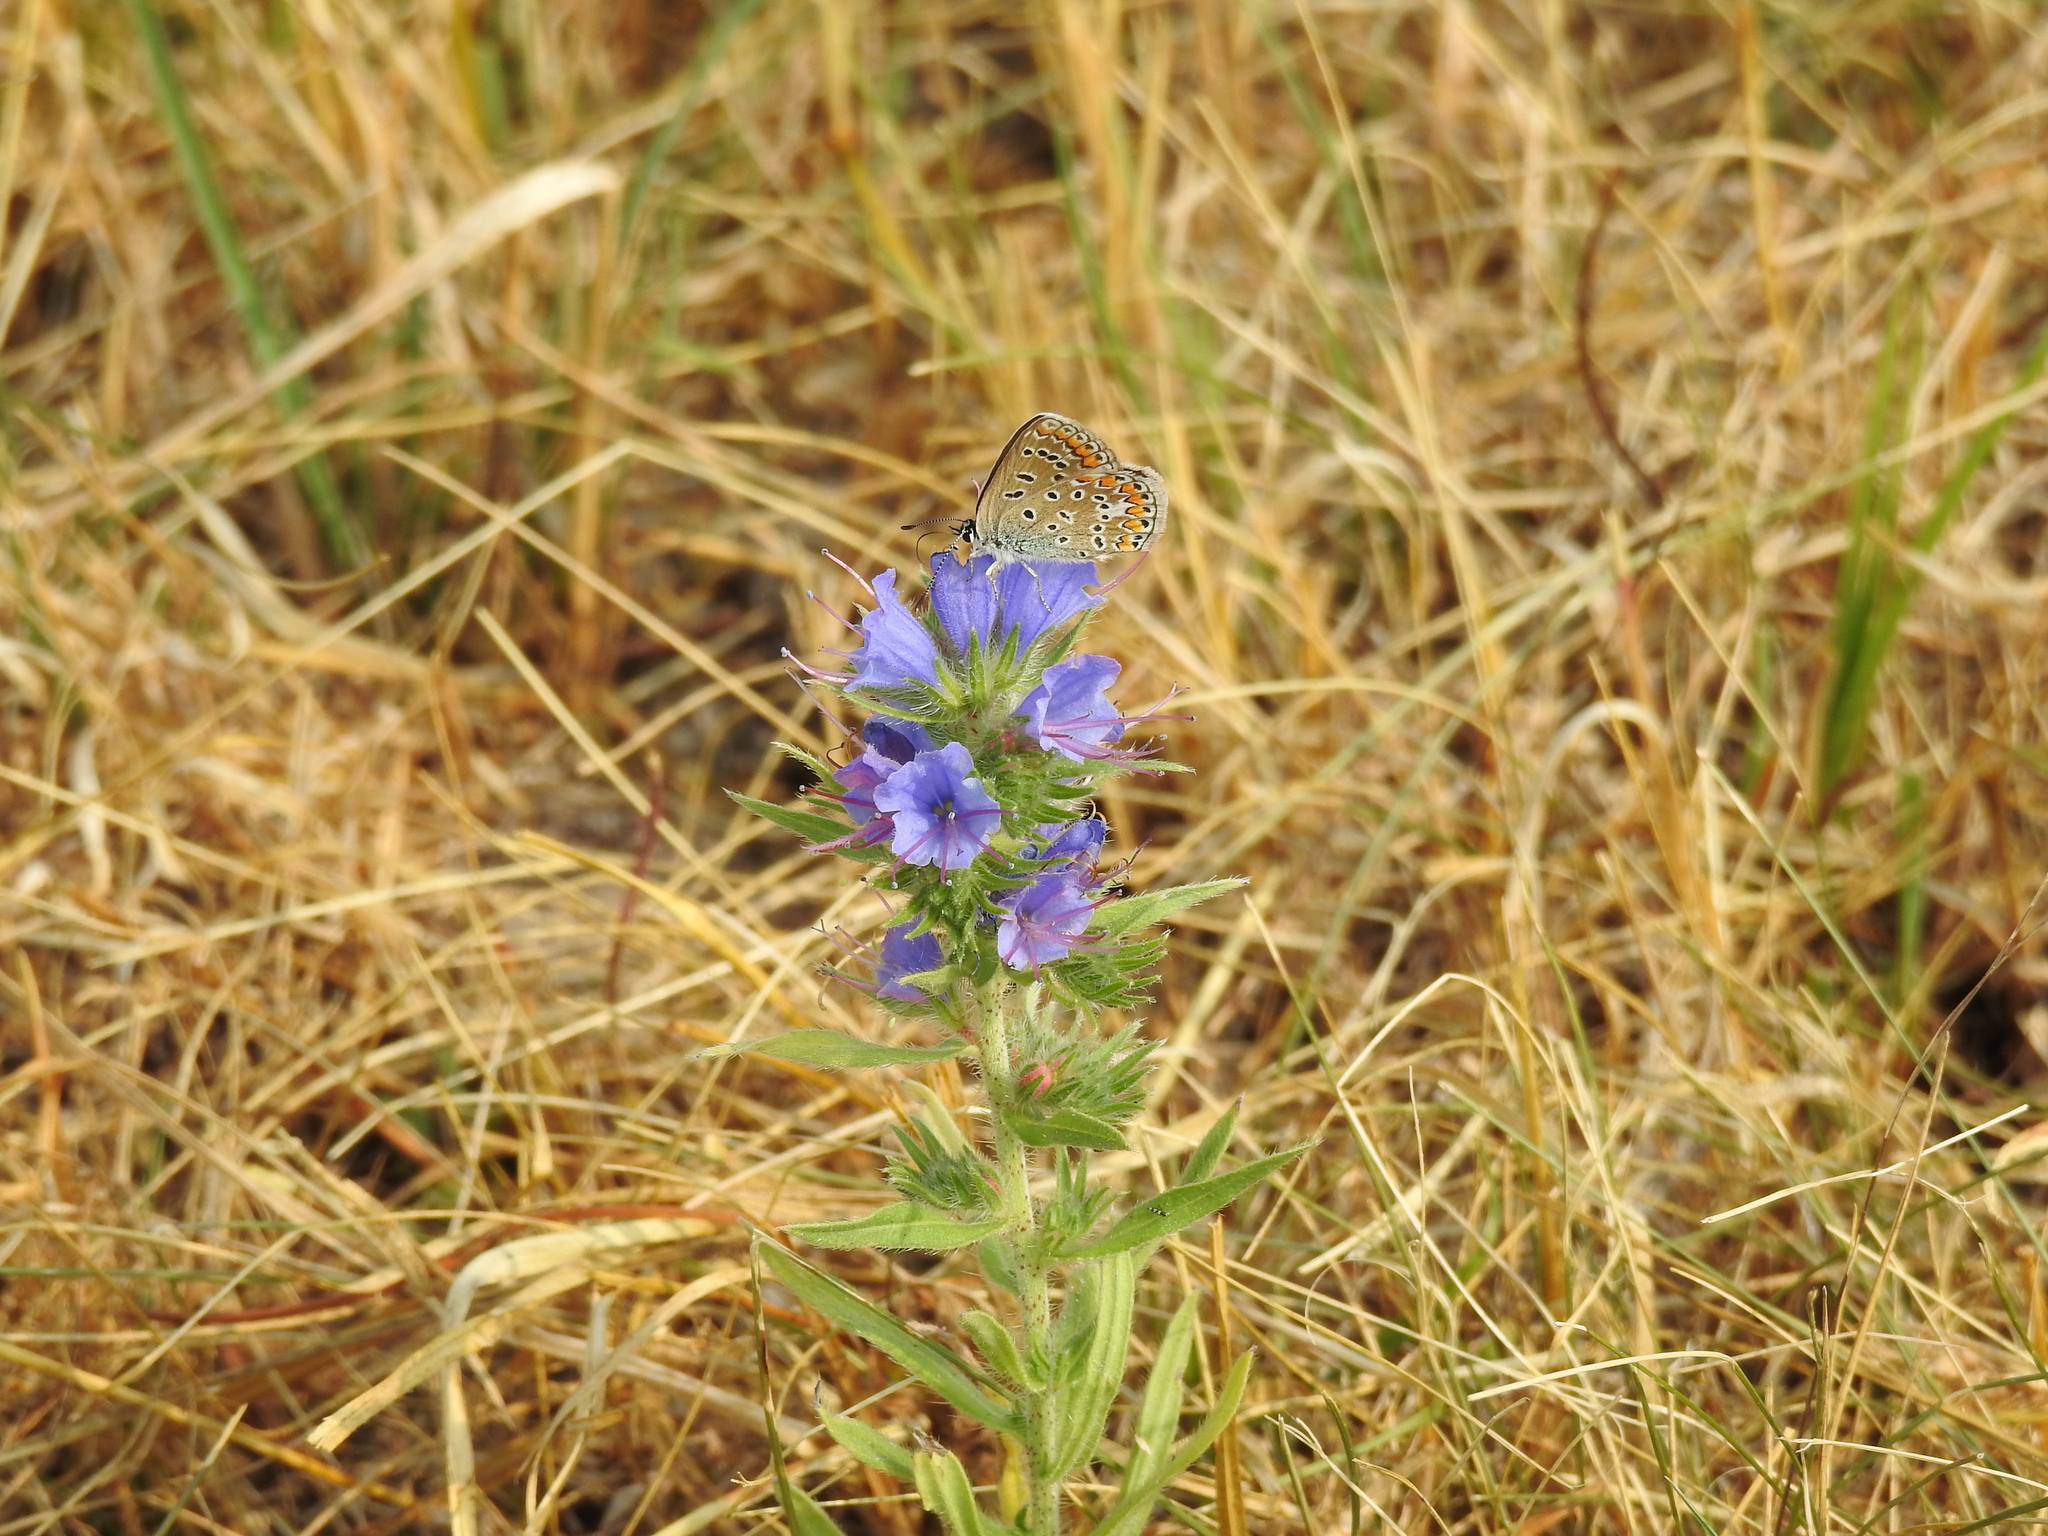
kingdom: Animalia
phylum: Arthropoda
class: Insecta
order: Lepidoptera
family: Lycaenidae
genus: Polyommatus
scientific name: Polyommatus icarus
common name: Common blue
